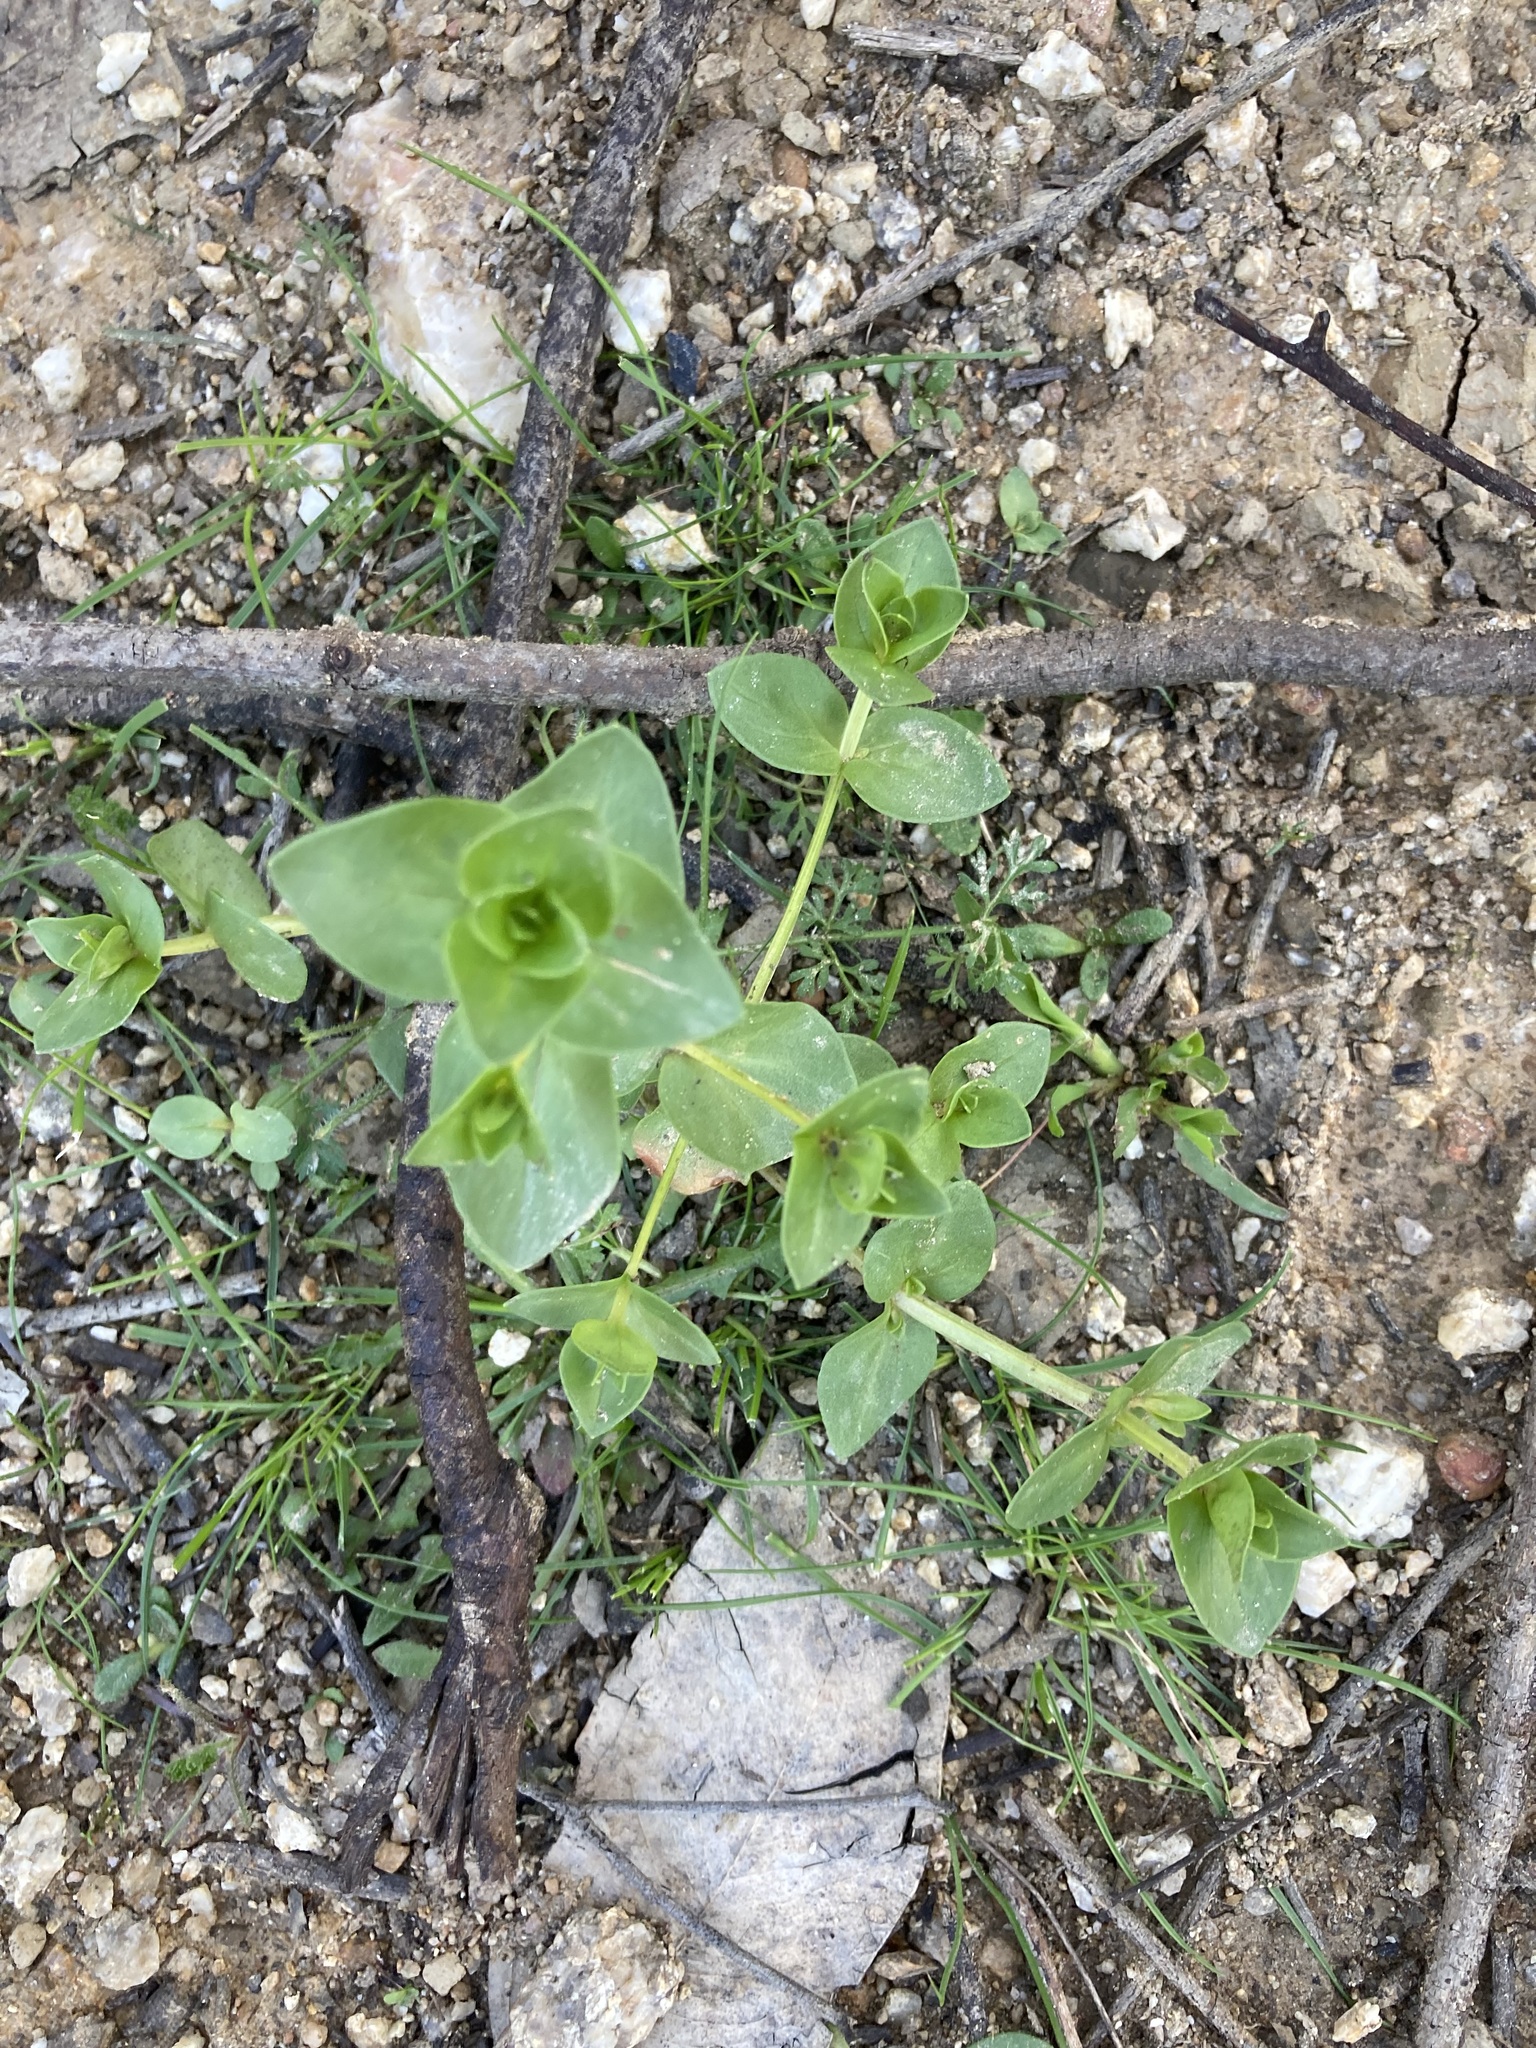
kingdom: Plantae
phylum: Tracheophyta
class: Magnoliopsida
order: Ericales
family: Primulaceae
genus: Lysimachia
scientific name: Lysimachia arvensis
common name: Scarlet pimpernel
